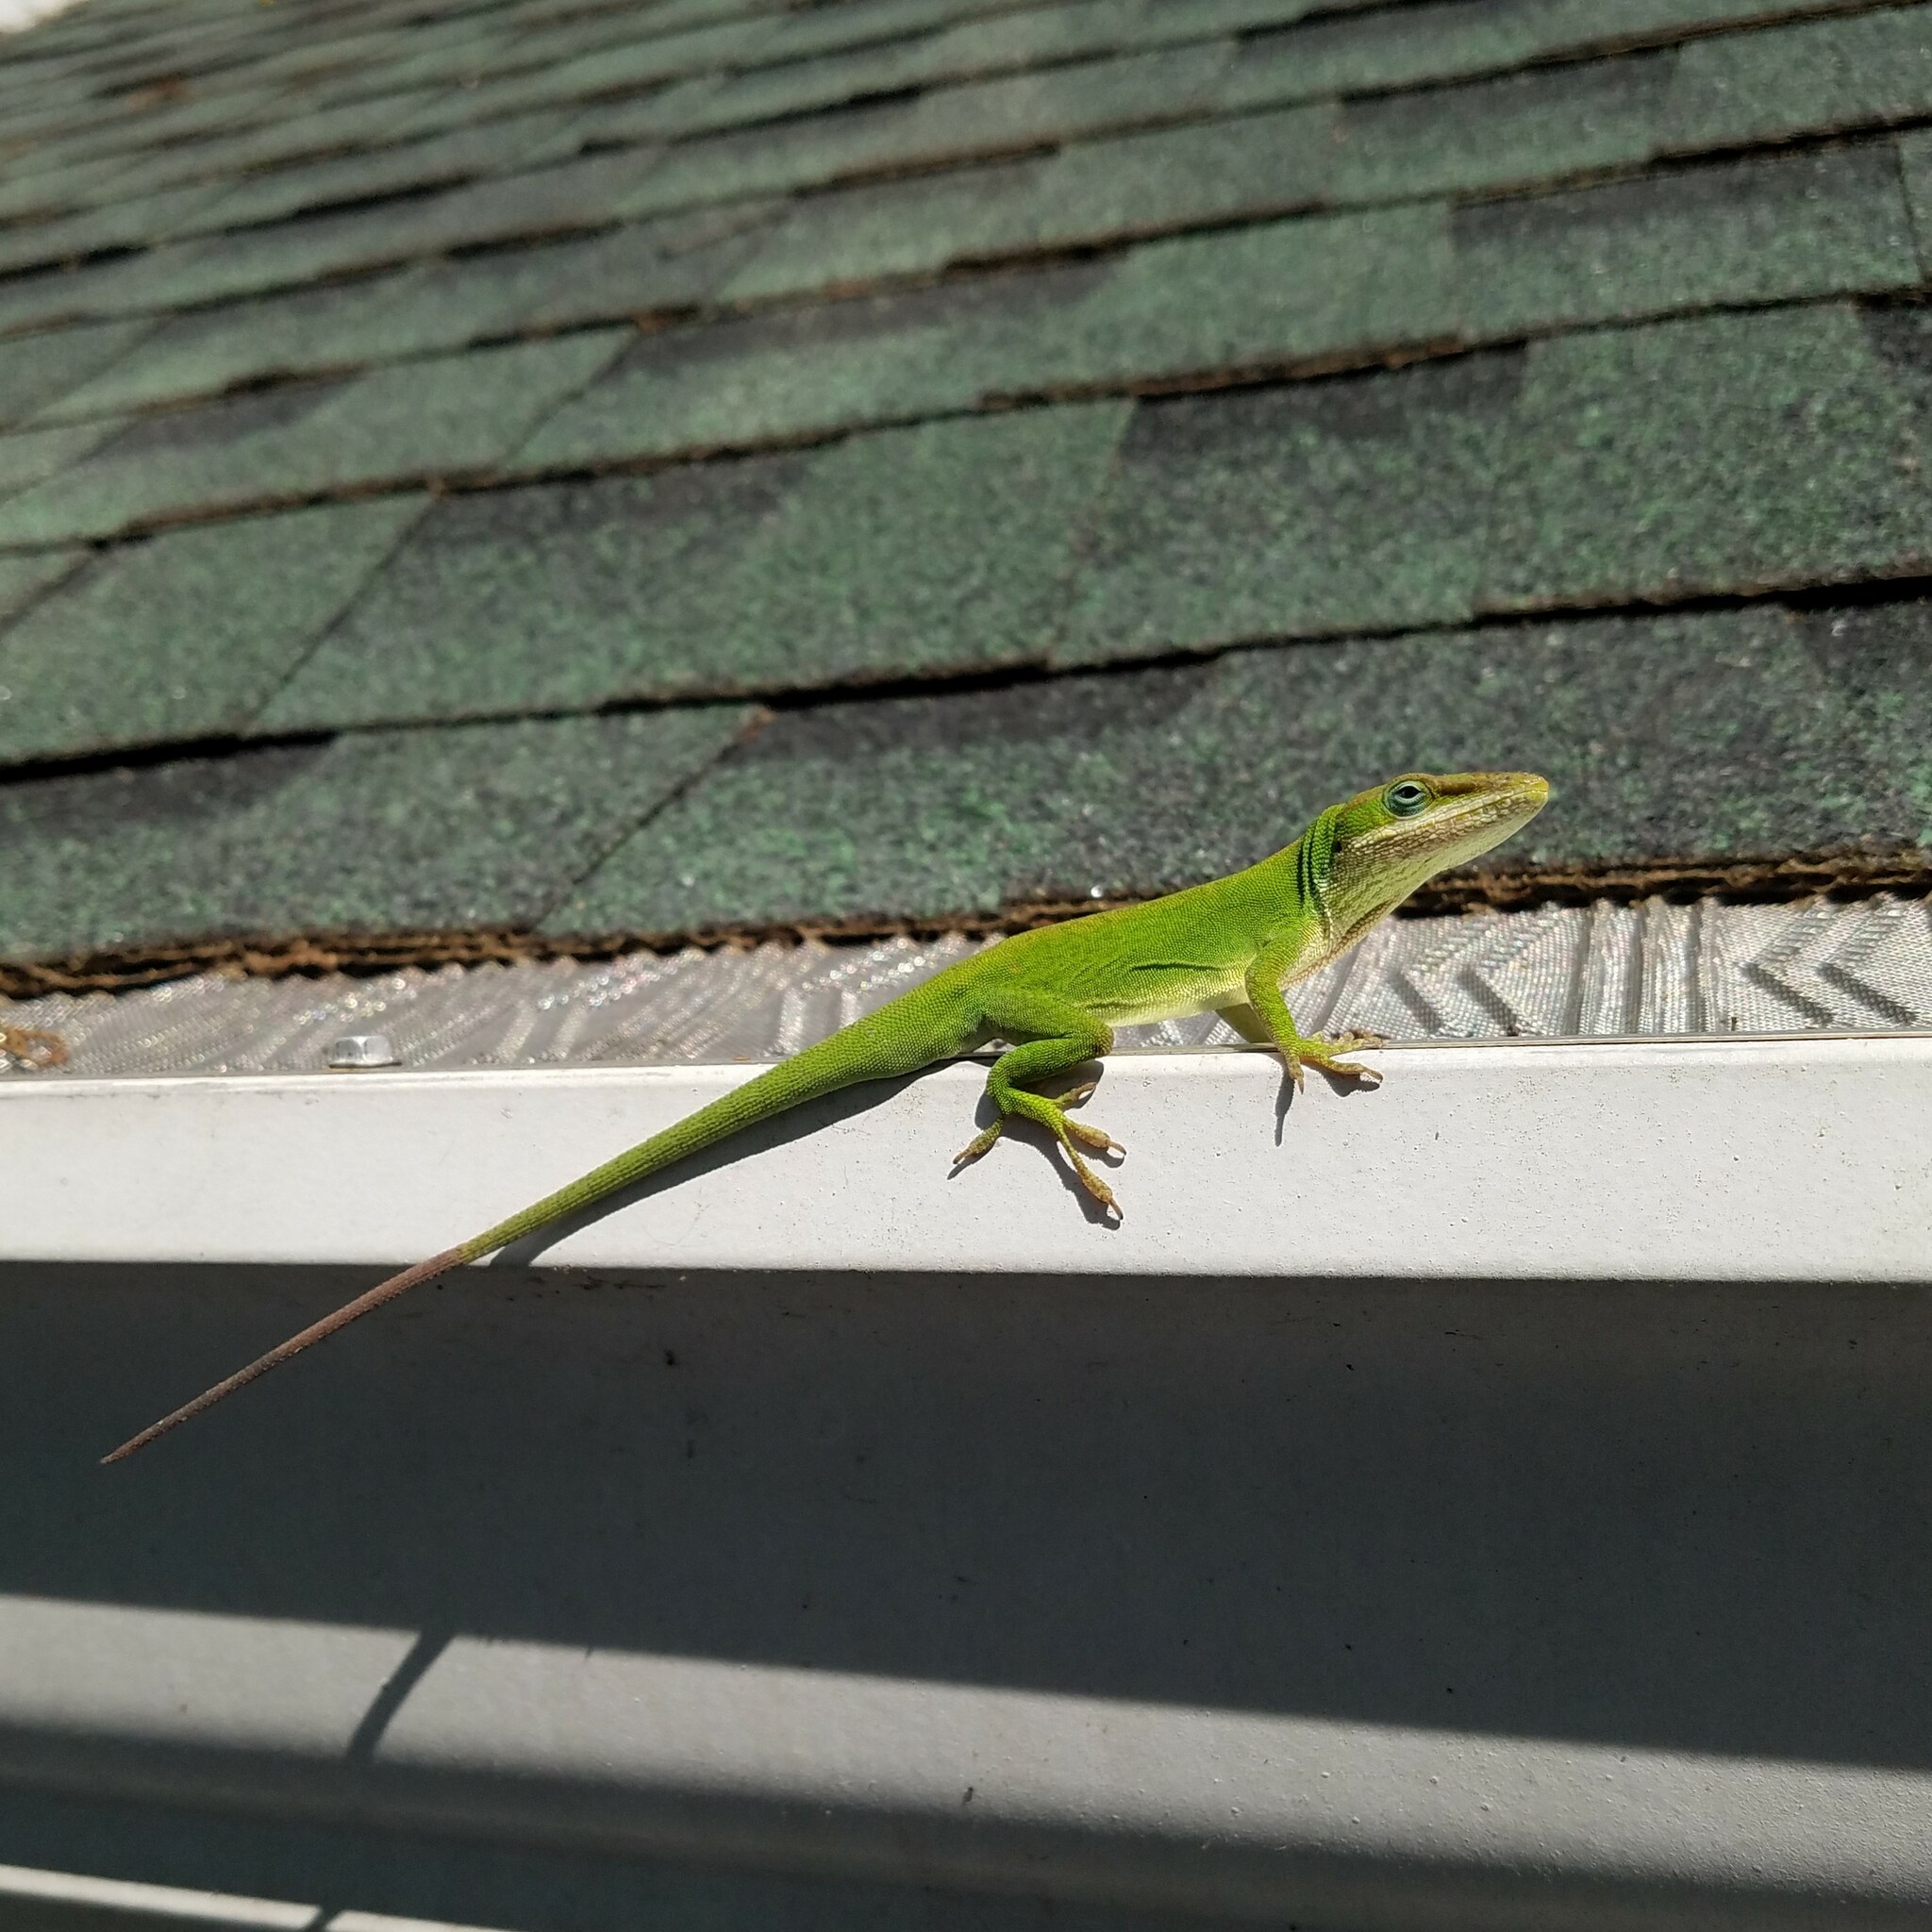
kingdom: Animalia
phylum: Chordata
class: Squamata
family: Dactyloidae
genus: Anolis
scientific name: Anolis carolinensis
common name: Green anole
